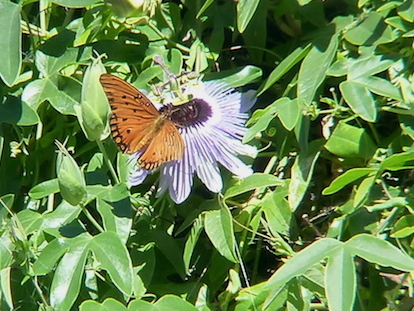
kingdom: Animalia
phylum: Arthropoda
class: Insecta
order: Lepidoptera
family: Nymphalidae
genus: Dione
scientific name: Dione vanillae
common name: Gulf fritillary
